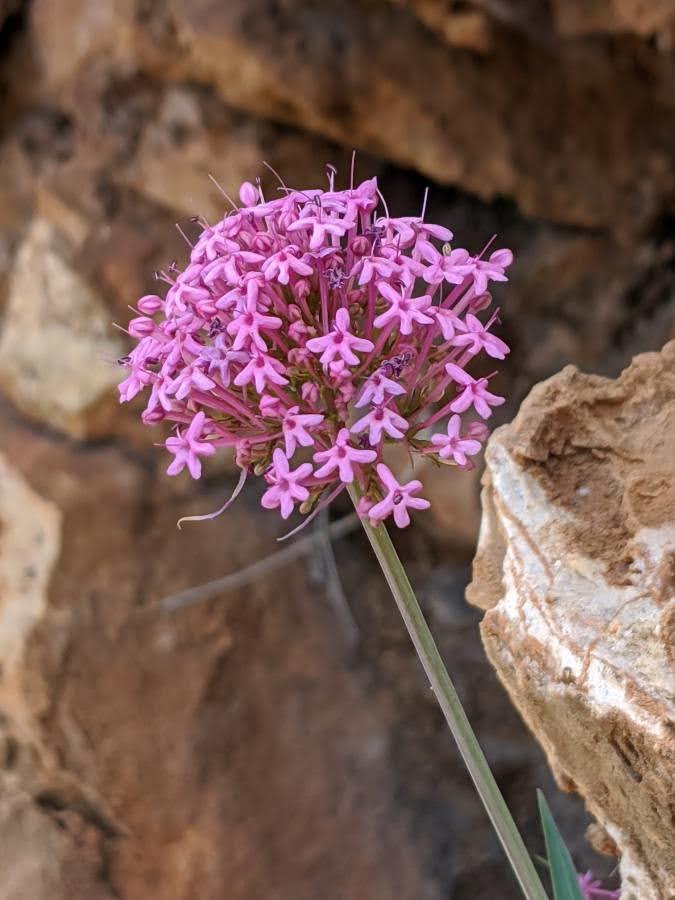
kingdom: Plantae
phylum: Tracheophyta
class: Magnoliopsida
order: Dipsacales
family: Caprifoliaceae
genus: Centranthus
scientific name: Centranthus lecoqii
